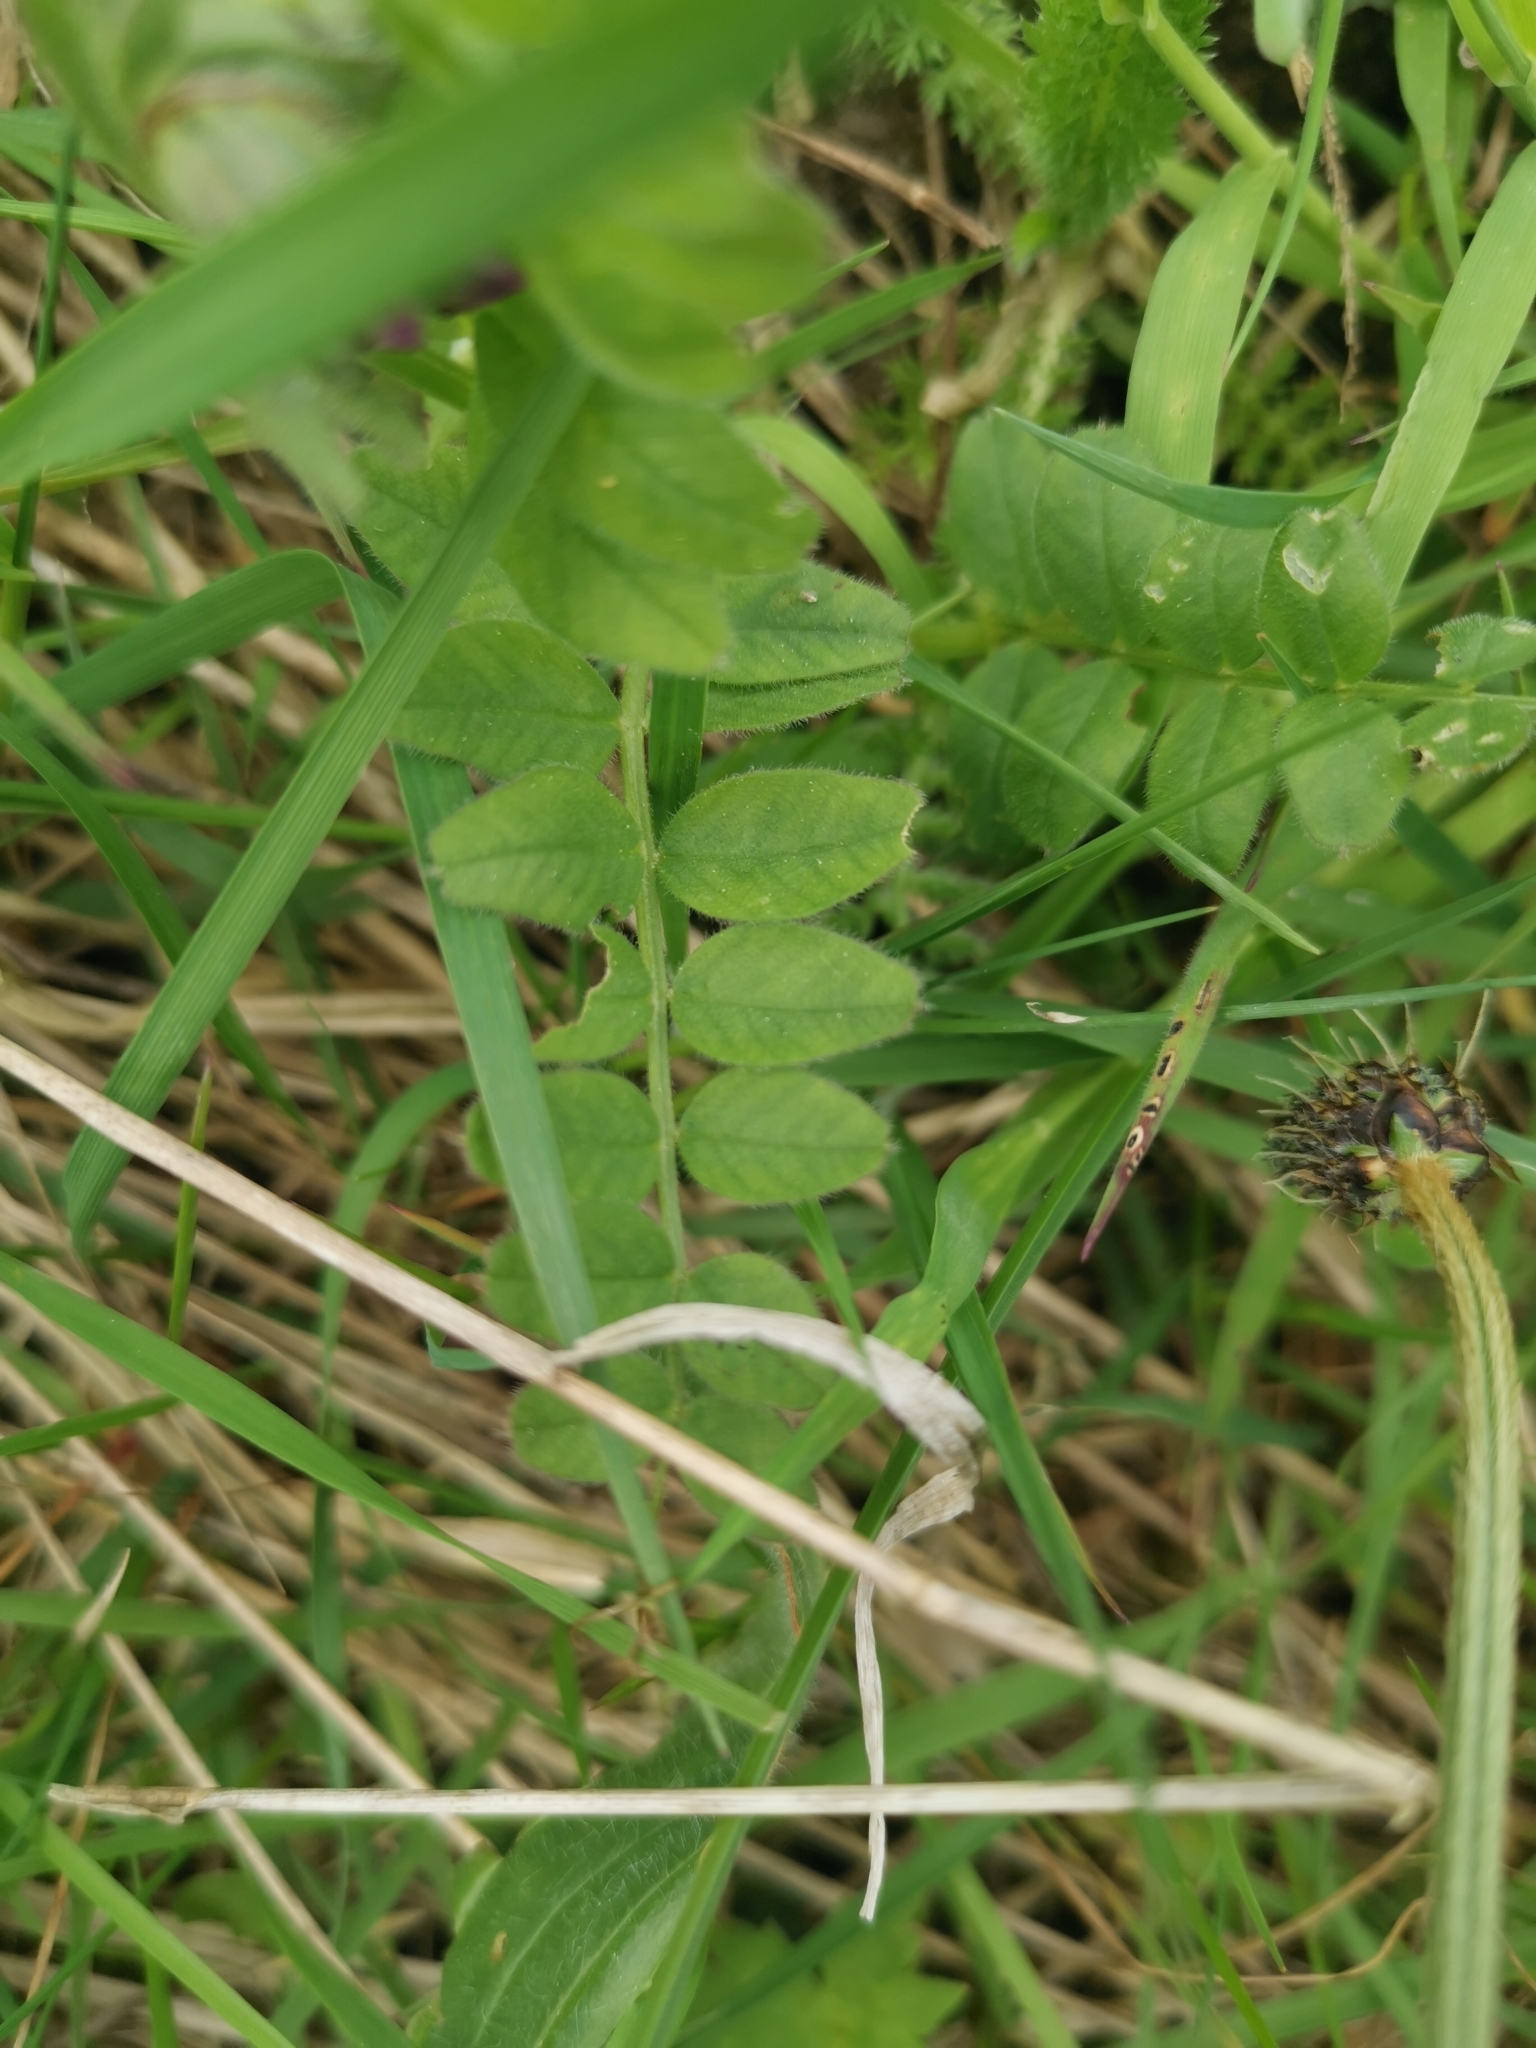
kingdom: Plantae
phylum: Tracheophyta
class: Magnoliopsida
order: Fabales
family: Fabaceae
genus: Vicia
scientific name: Vicia sepium
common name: Bush vetch
